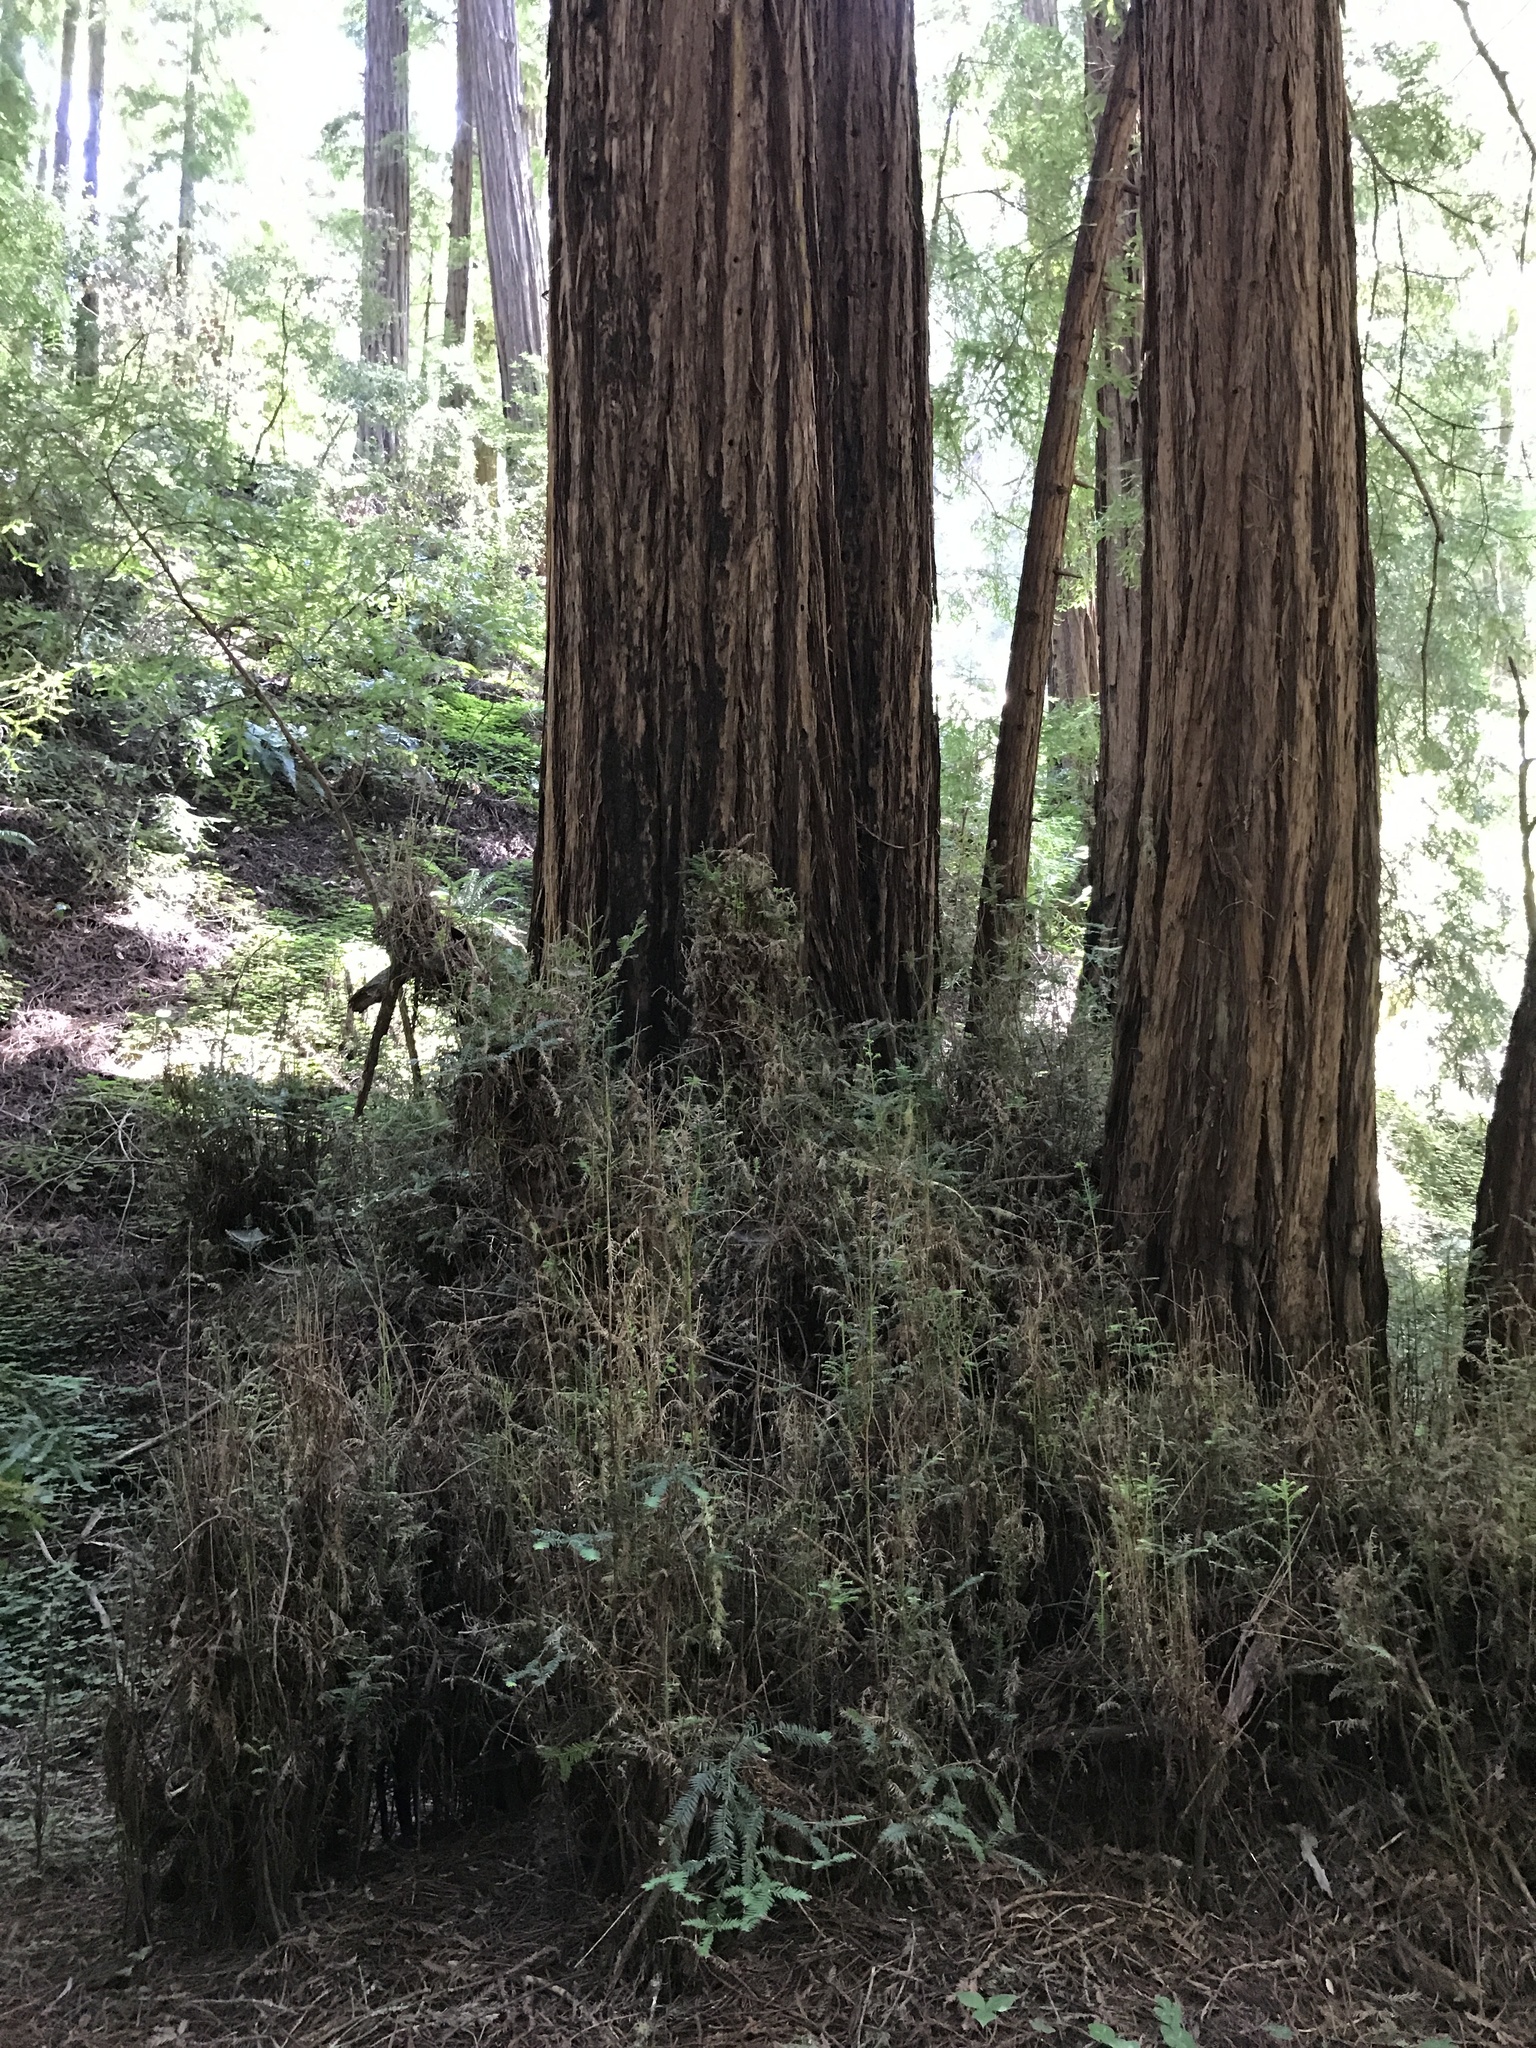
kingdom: Plantae
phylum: Tracheophyta
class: Pinopsida
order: Pinales
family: Cupressaceae
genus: Sequoia
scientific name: Sequoia sempervirens
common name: Coast redwood
